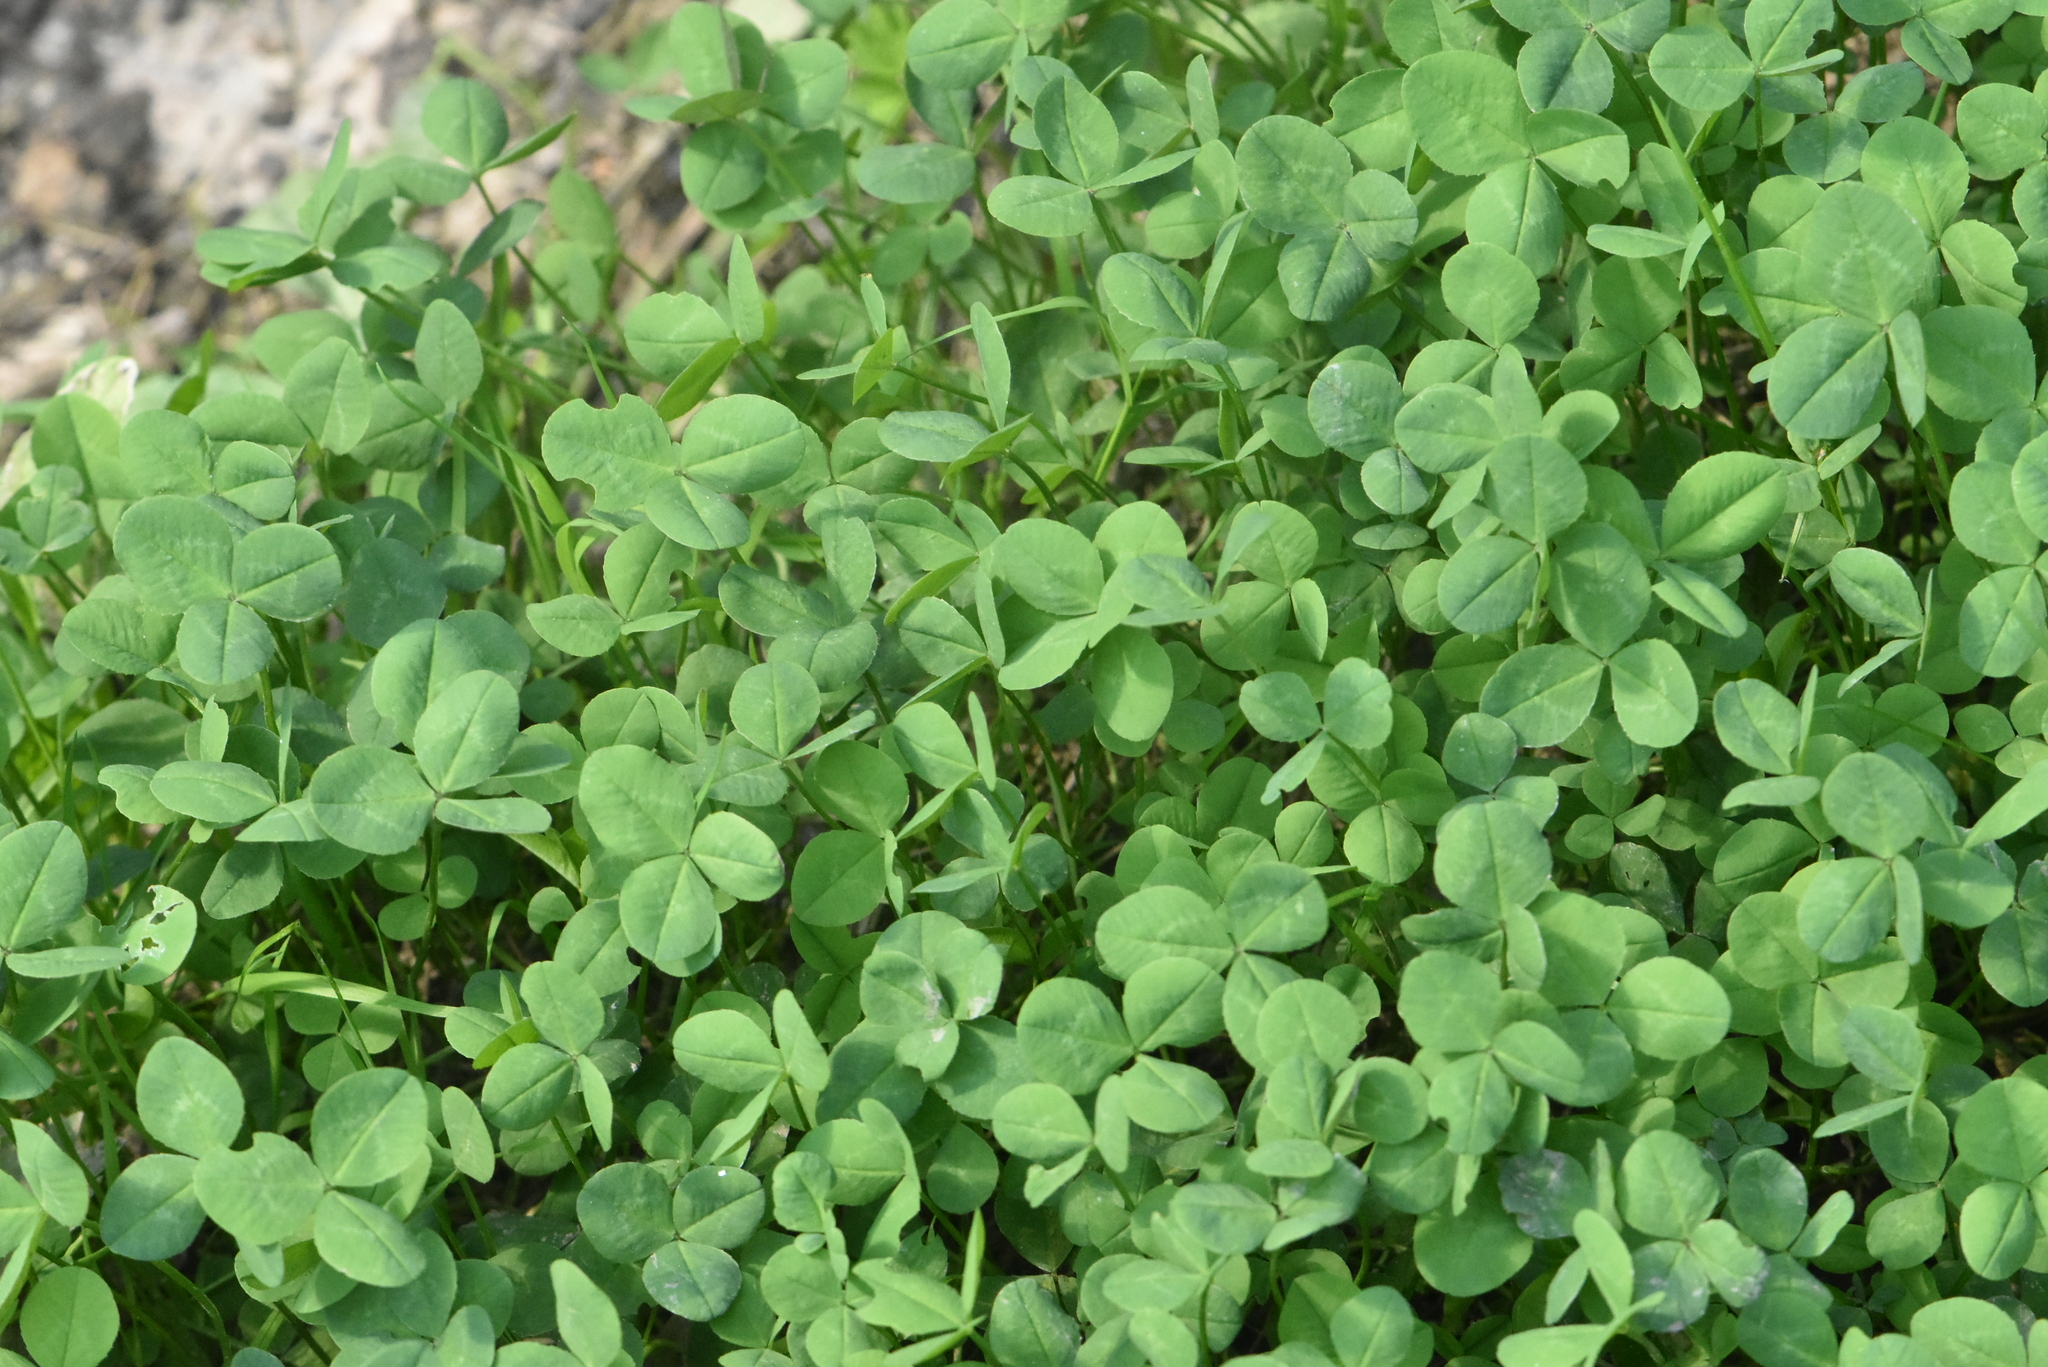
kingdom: Plantae
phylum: Tracheophyta
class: Magnoliopsida
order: Fabales
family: Fabaceae
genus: Trifolium
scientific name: Trifolium repens
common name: White clover
